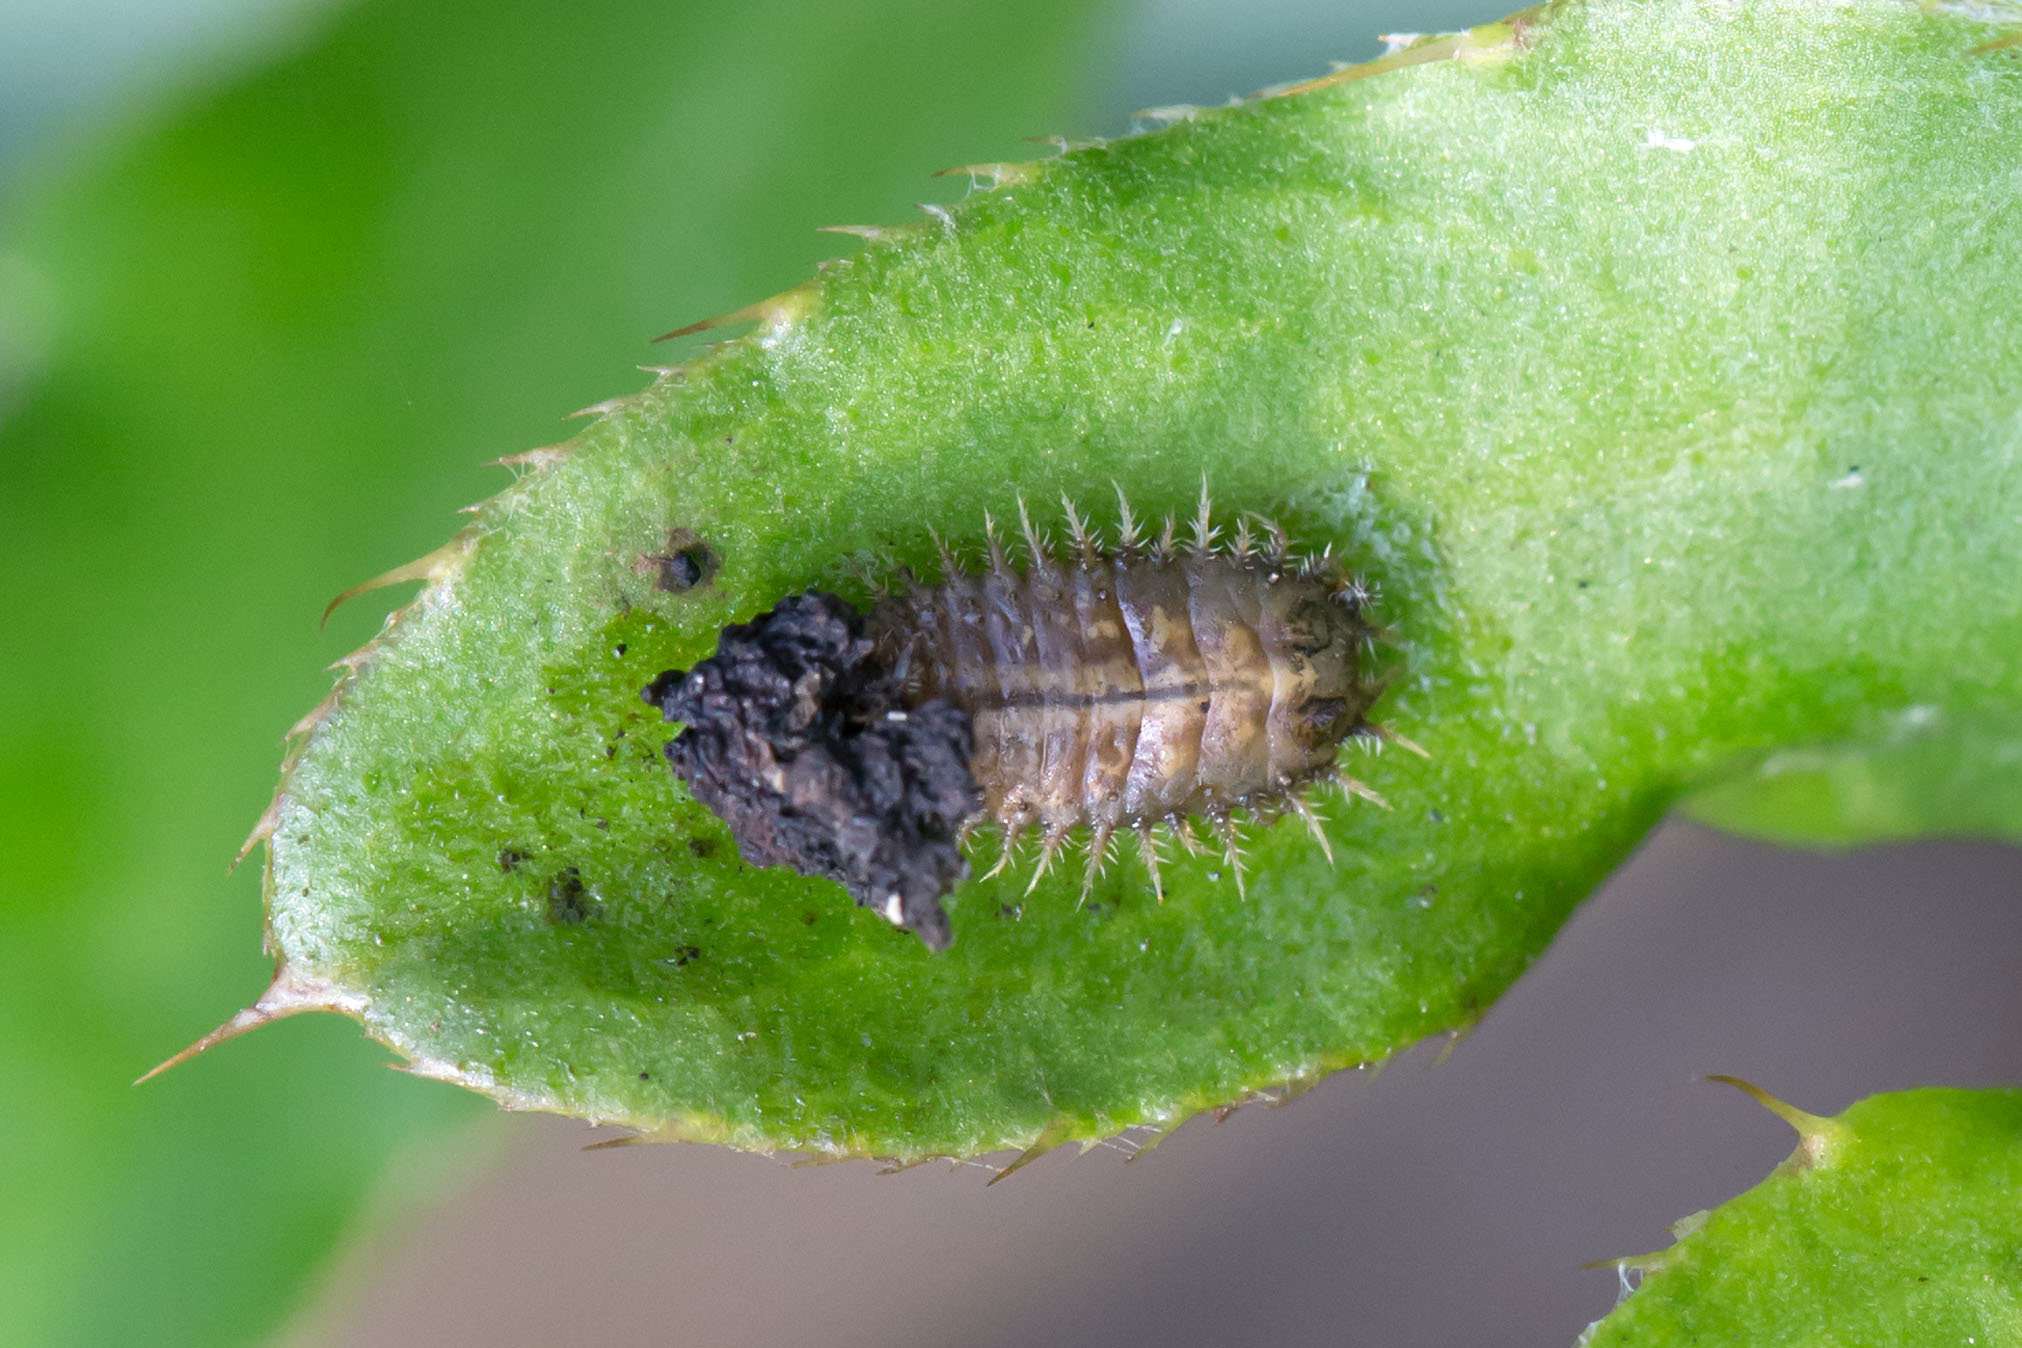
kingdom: Animalia
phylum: Arthropoda
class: Insecta
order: Coleoptera
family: Chrysomelidae
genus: Cassida
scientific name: Cassida rubiginosa
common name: Thistle tortoise beetle
